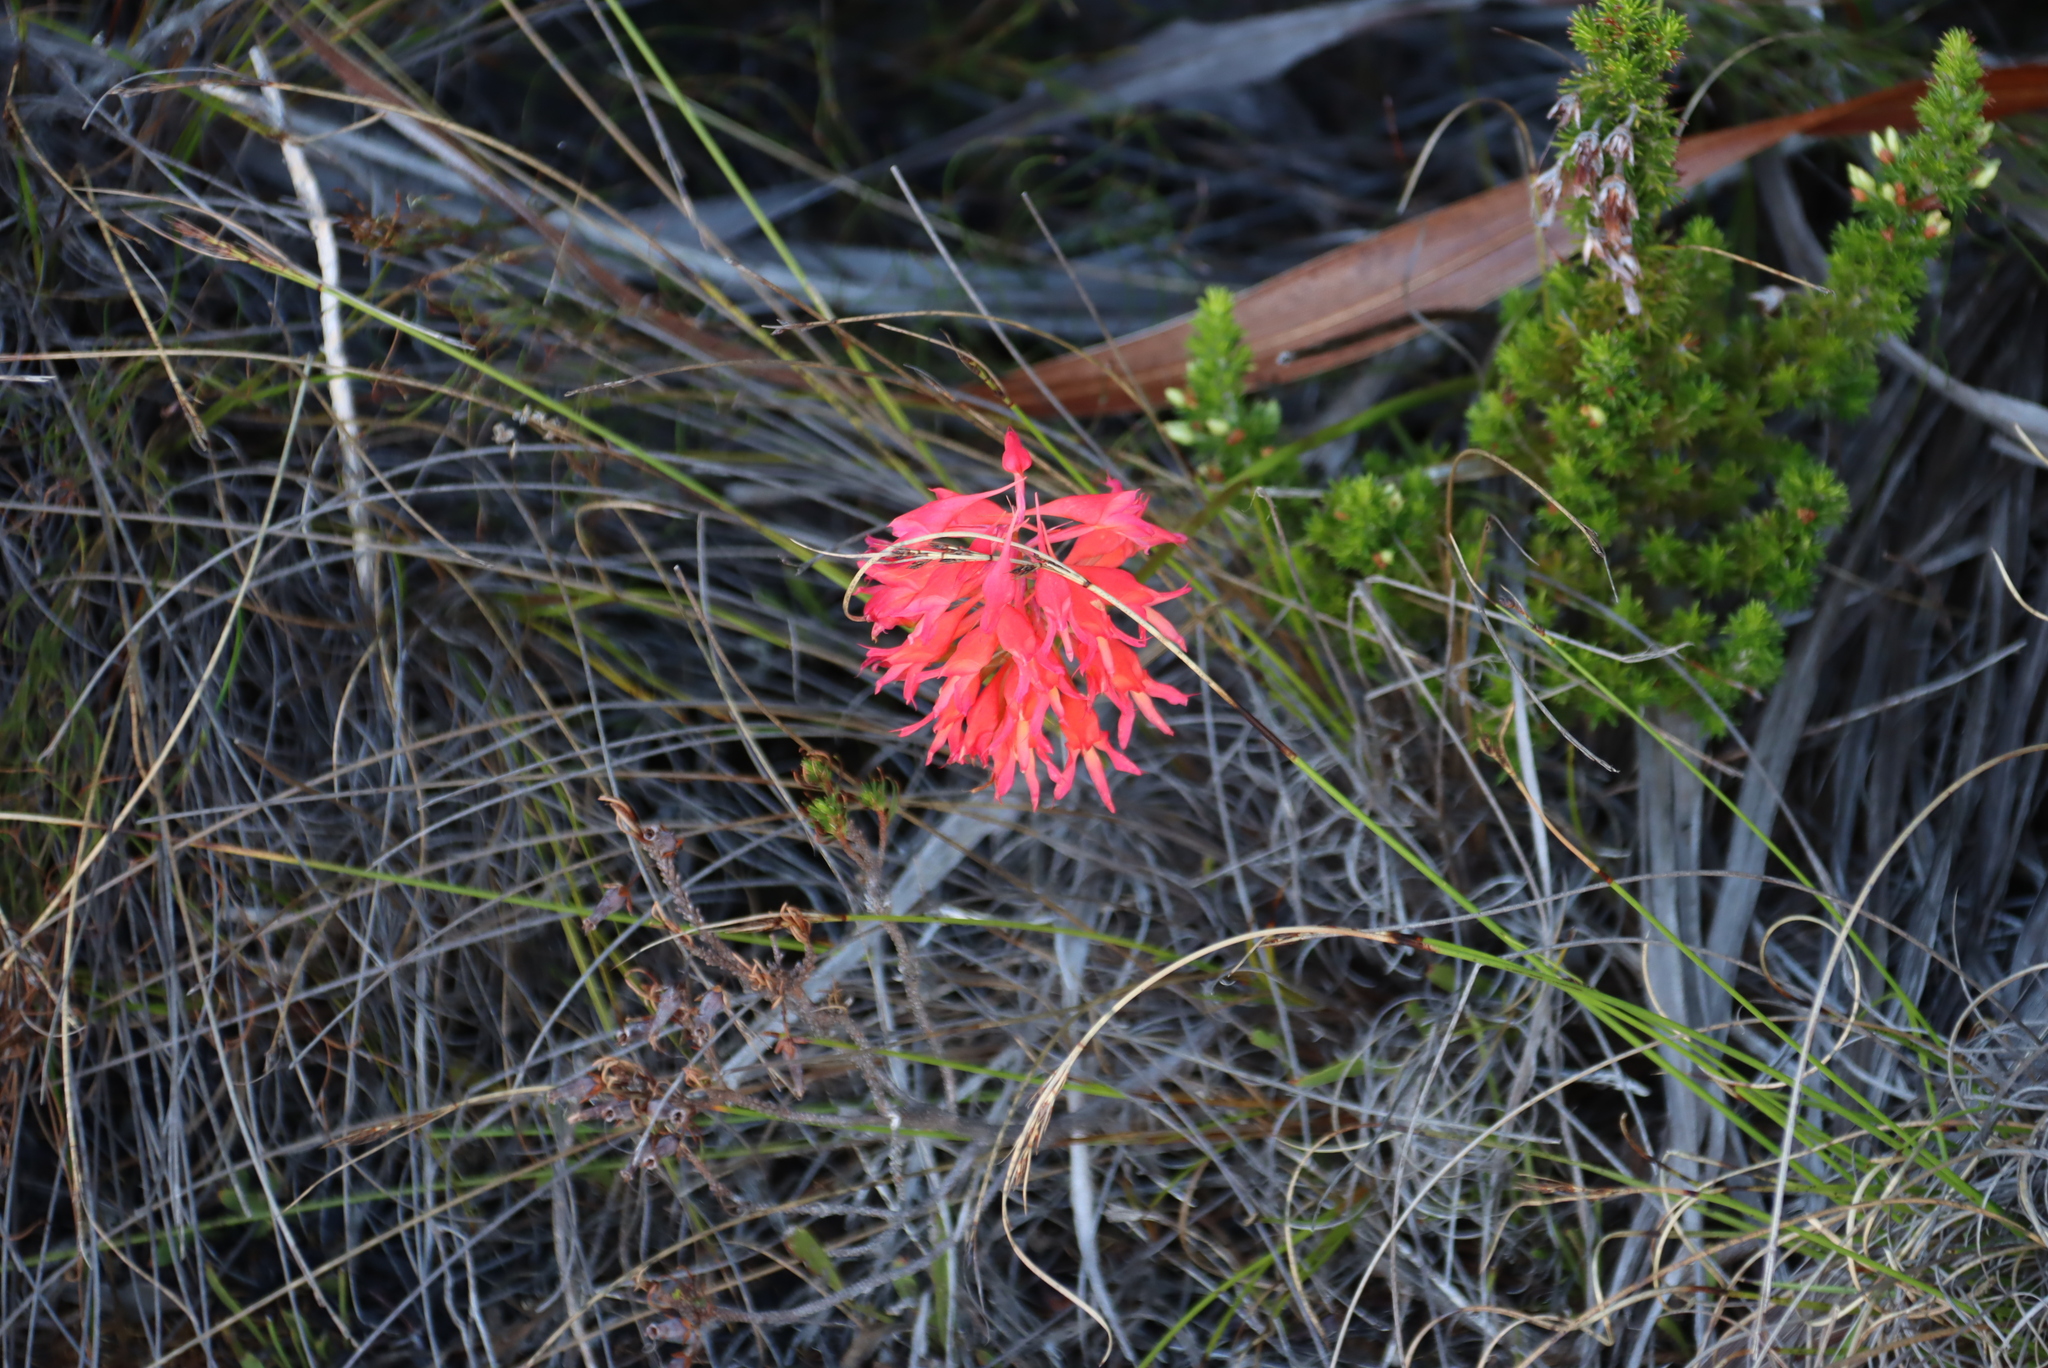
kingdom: Plantae
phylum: Tracheophyta
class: Liliopsida
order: Asparagales
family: Orchidaceae
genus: Disa
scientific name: Disa ferruginea
